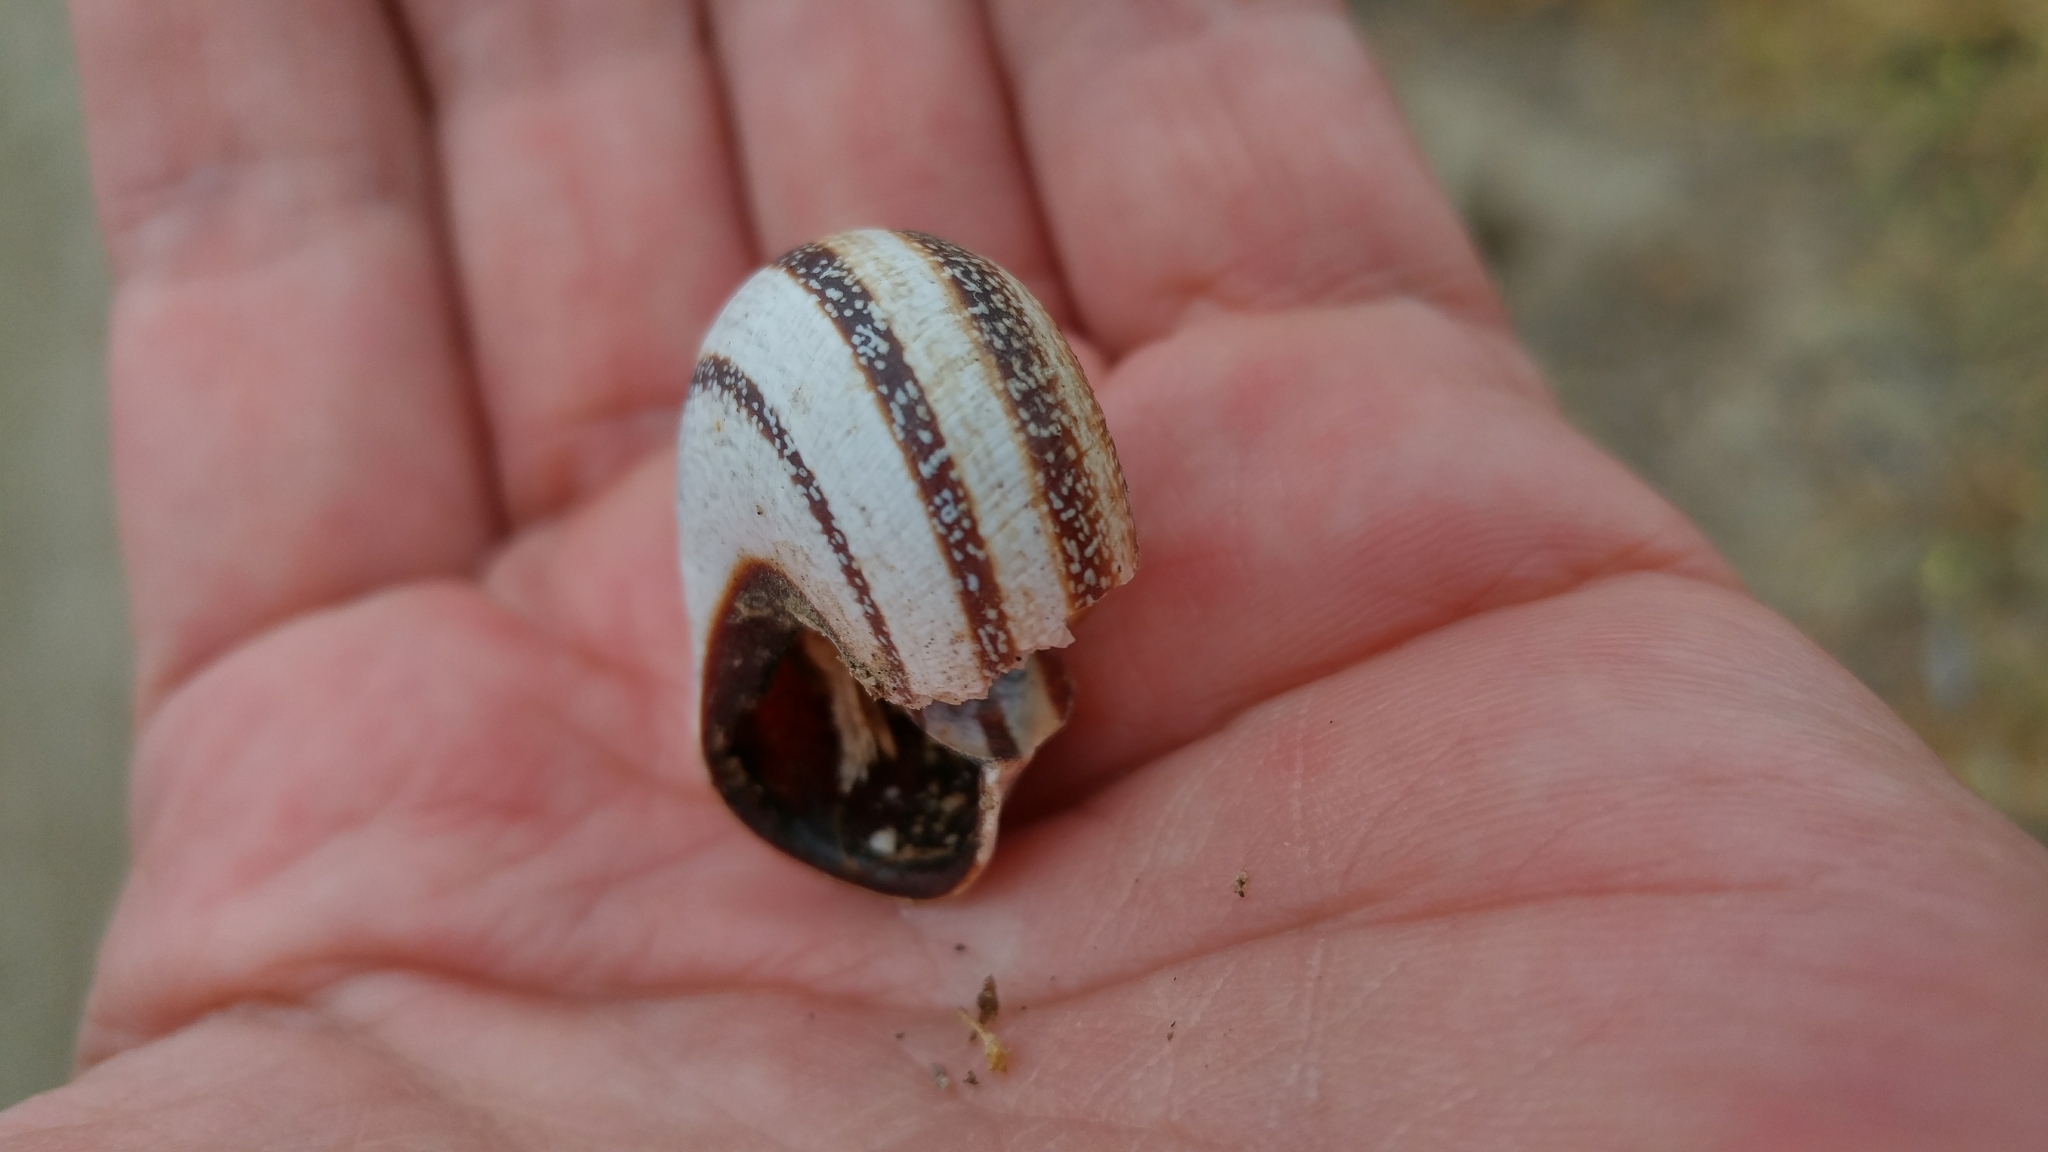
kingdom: Animalia
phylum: Mollusca
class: Gastropoda
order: Stylommatophora
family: Helicidae
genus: Otala
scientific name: Otala lactea
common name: Milk snail
